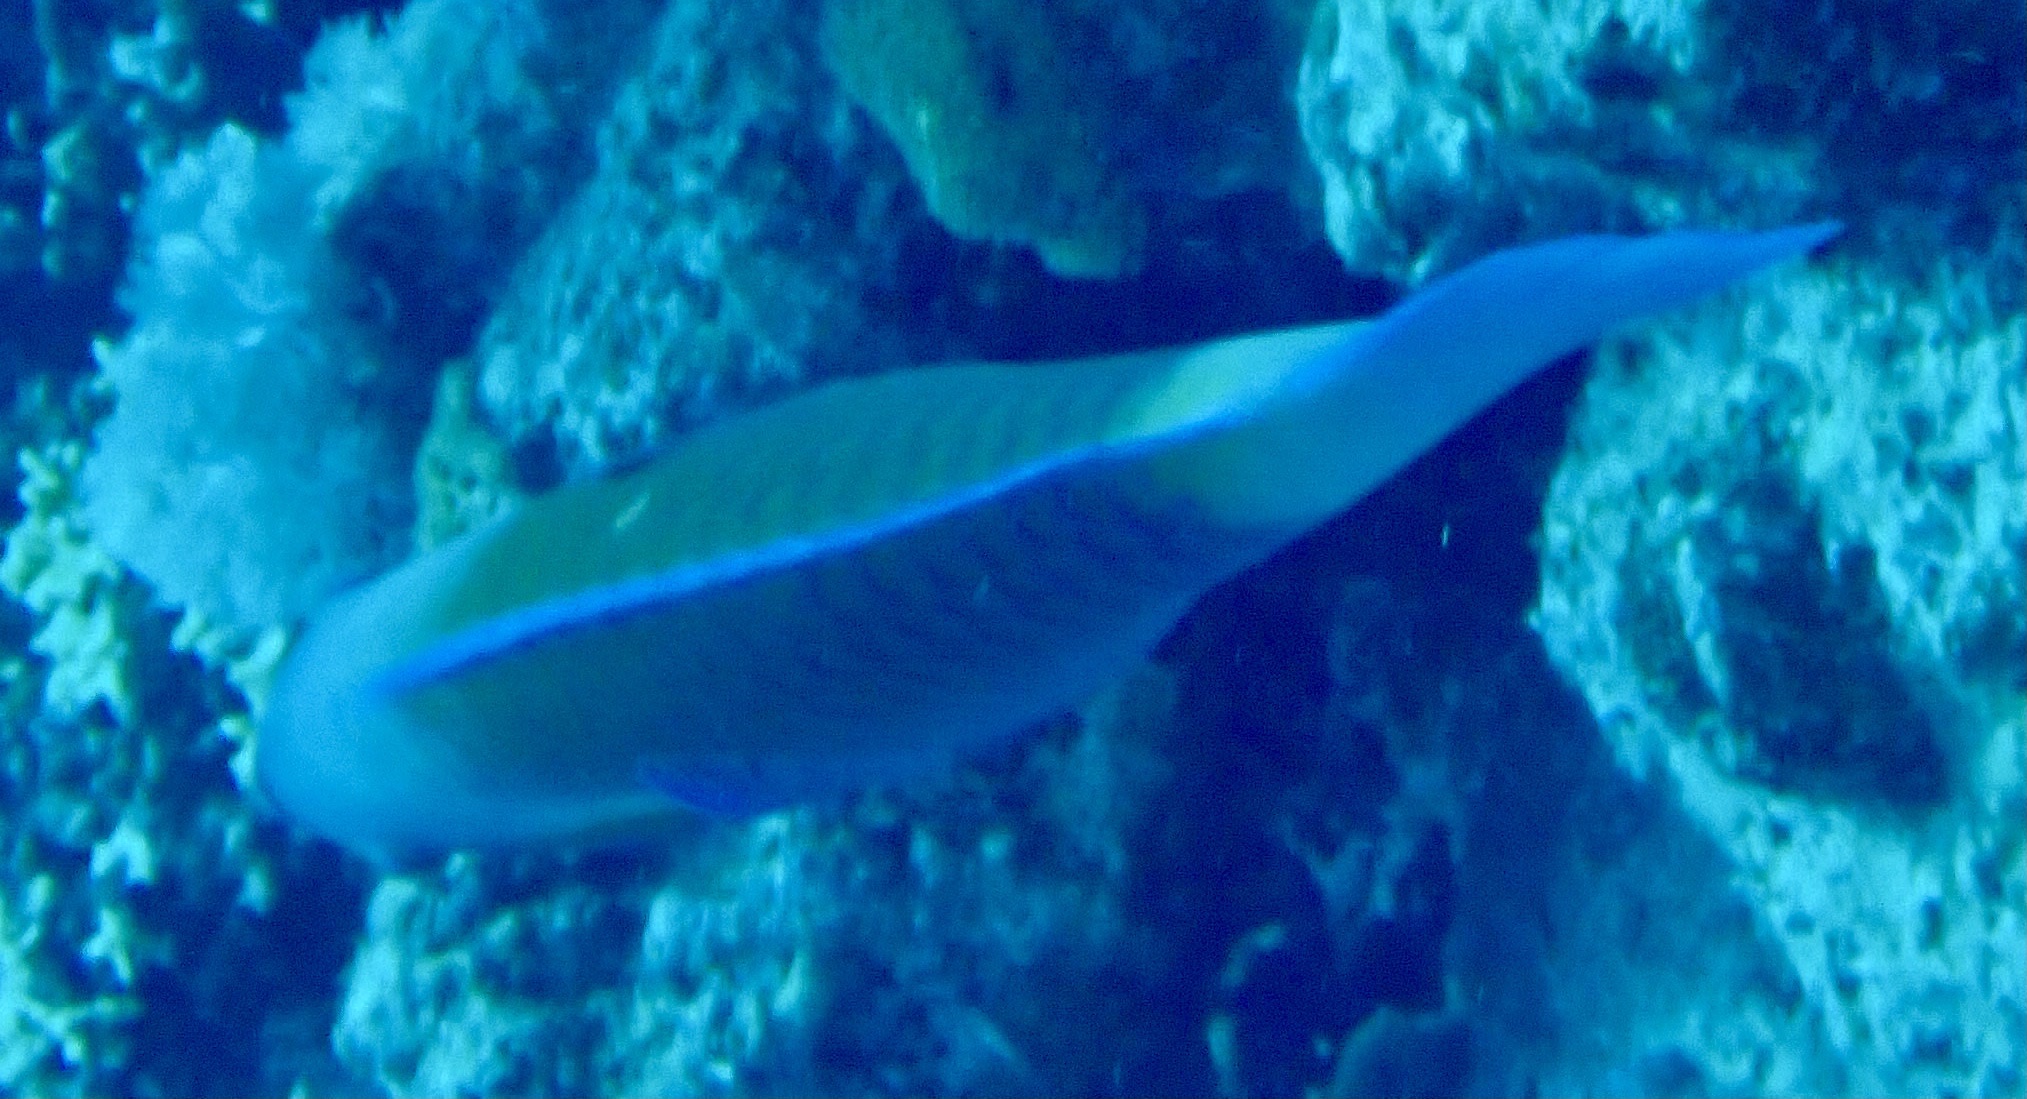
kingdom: Animalia
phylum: Chordata
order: Perciformes
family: Scaridae
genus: Chlorurus
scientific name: Chlorurus sordidus
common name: Bullethead parrotfish
